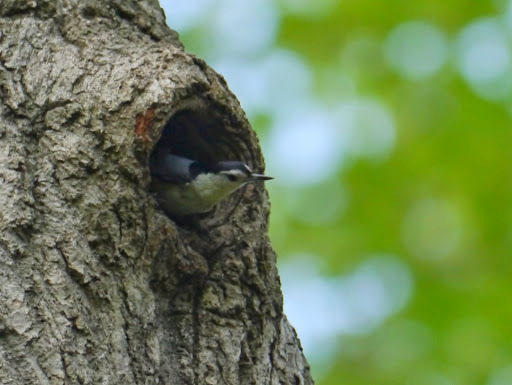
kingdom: Animalia
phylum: Chordata
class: Aves
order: Passeriformes
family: Sittidae
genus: Sitta
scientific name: Sitta carolinensis
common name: White-breasted nuthatch
